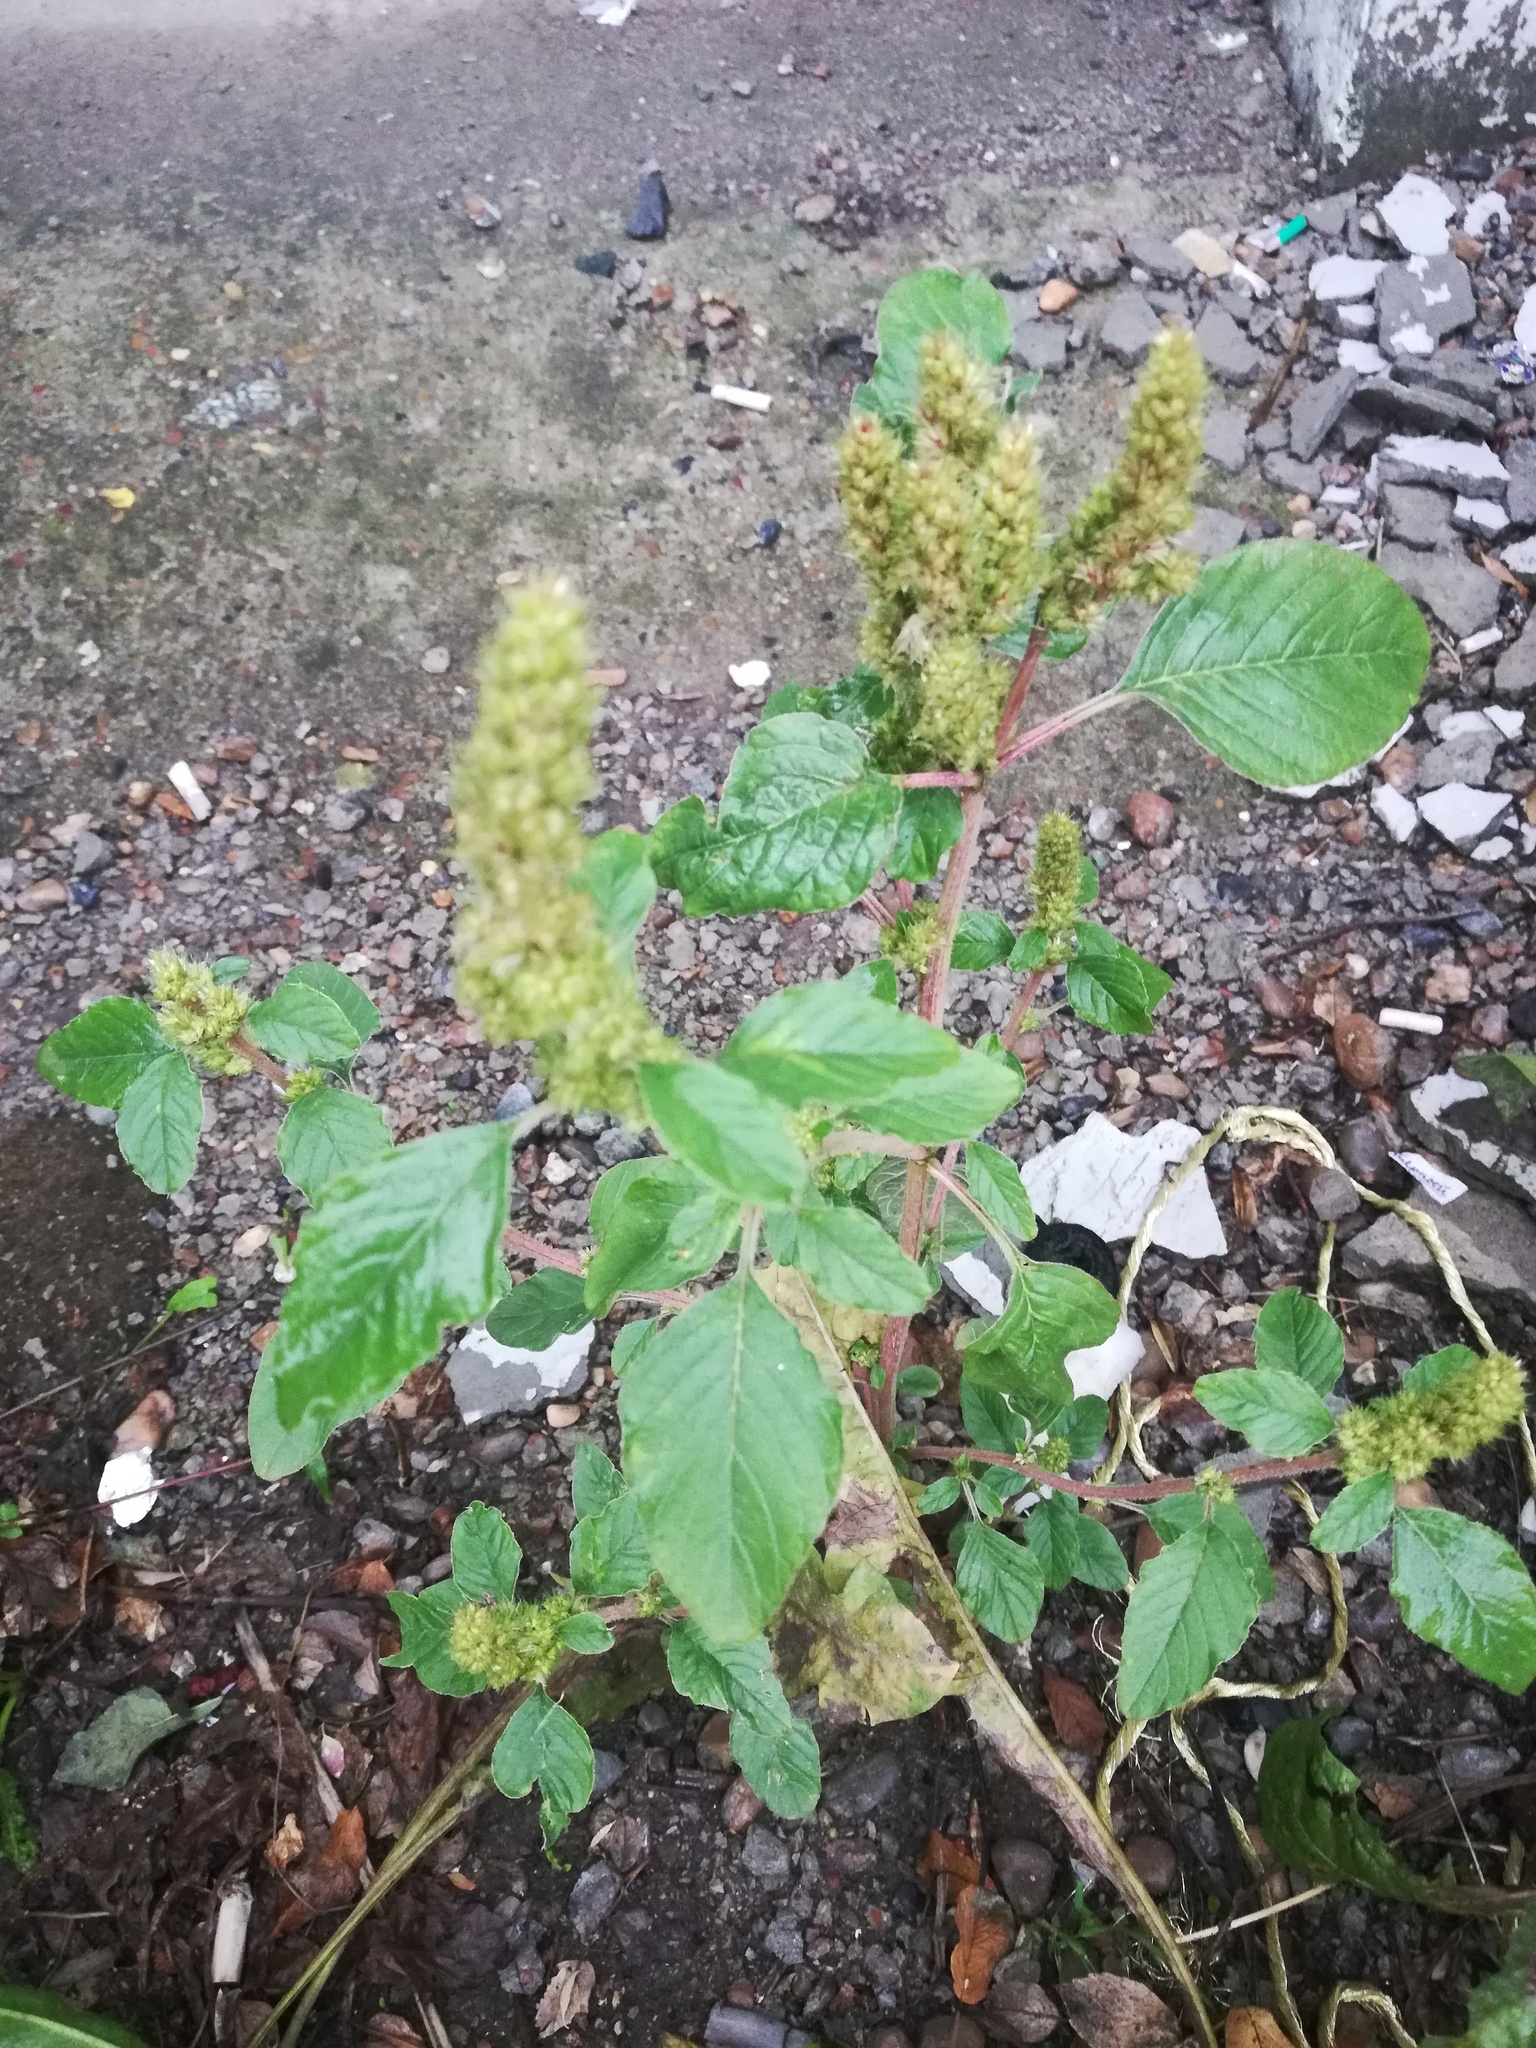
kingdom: Plantae
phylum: Tracheophyta
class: Magnoliopsida
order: Caryophyllales
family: Amaranthaceae
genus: Amaranthus
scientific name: Amaranthus retroflexus
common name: Redroot amaranth
